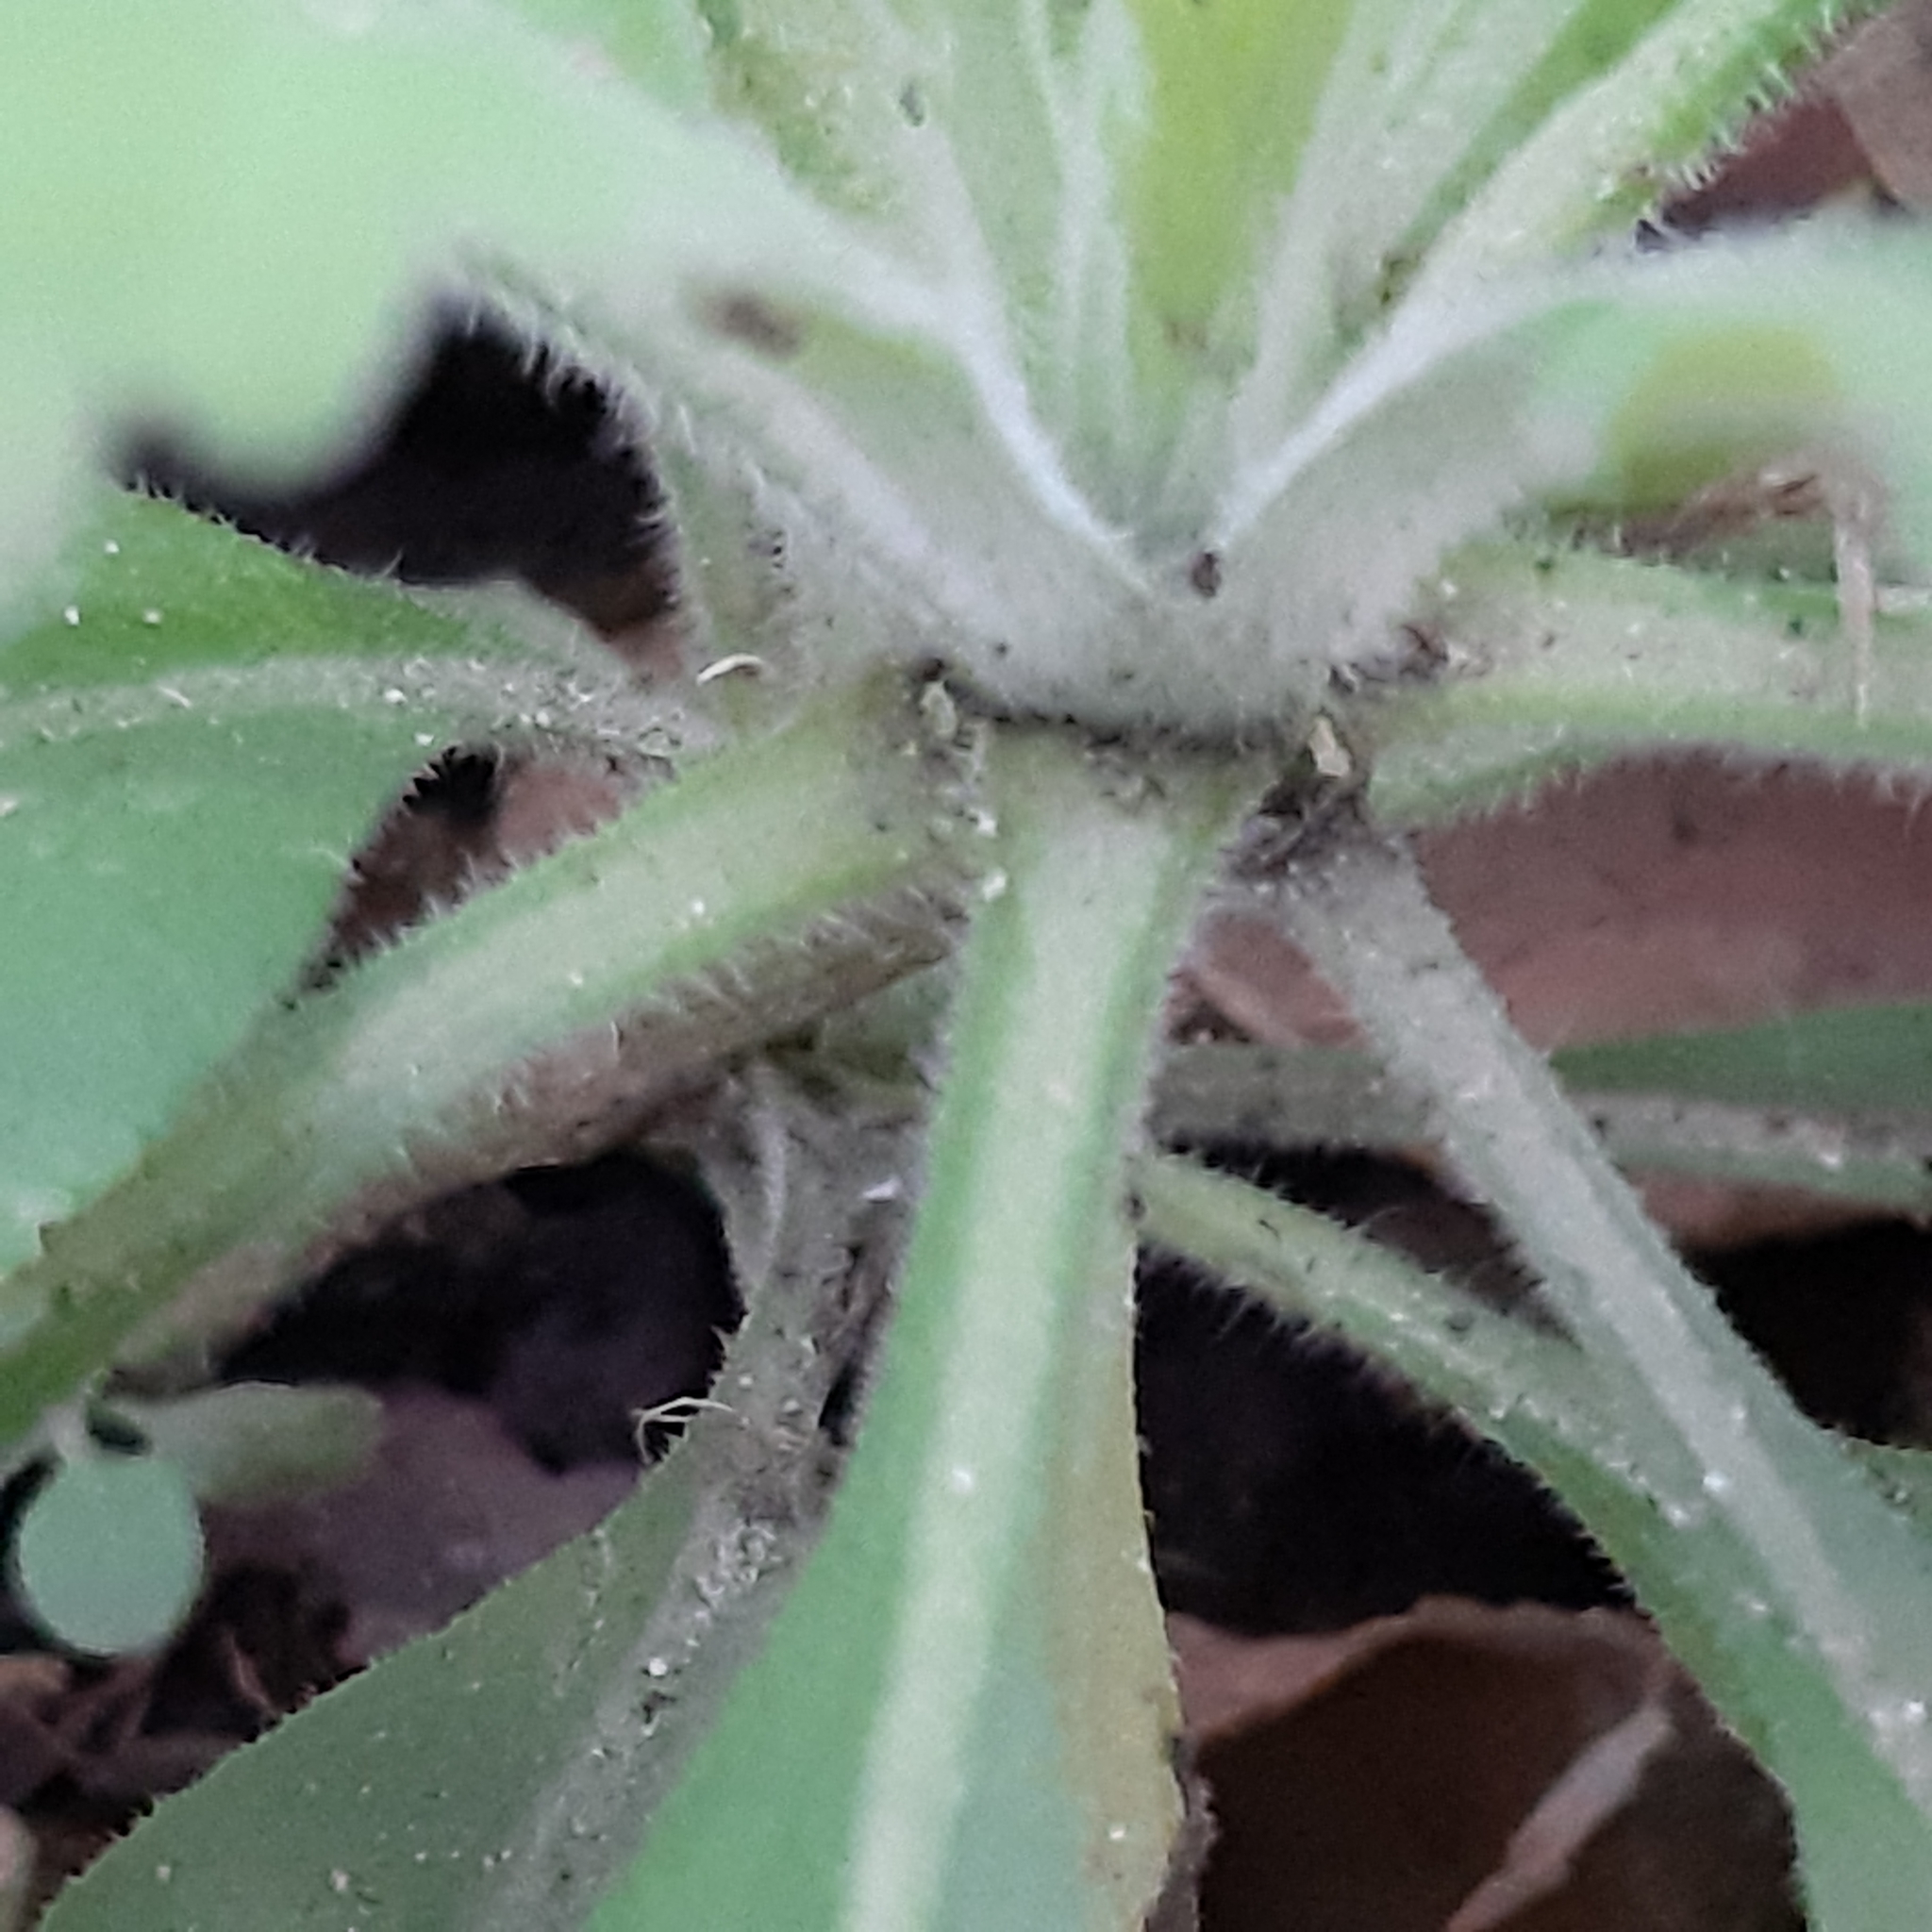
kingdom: Plantae
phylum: Tracheophyta
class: Magnoliopsida
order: Asterales
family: Asteraceae
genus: Erigeron
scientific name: Erigeron sumatrensis
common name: Daisy
